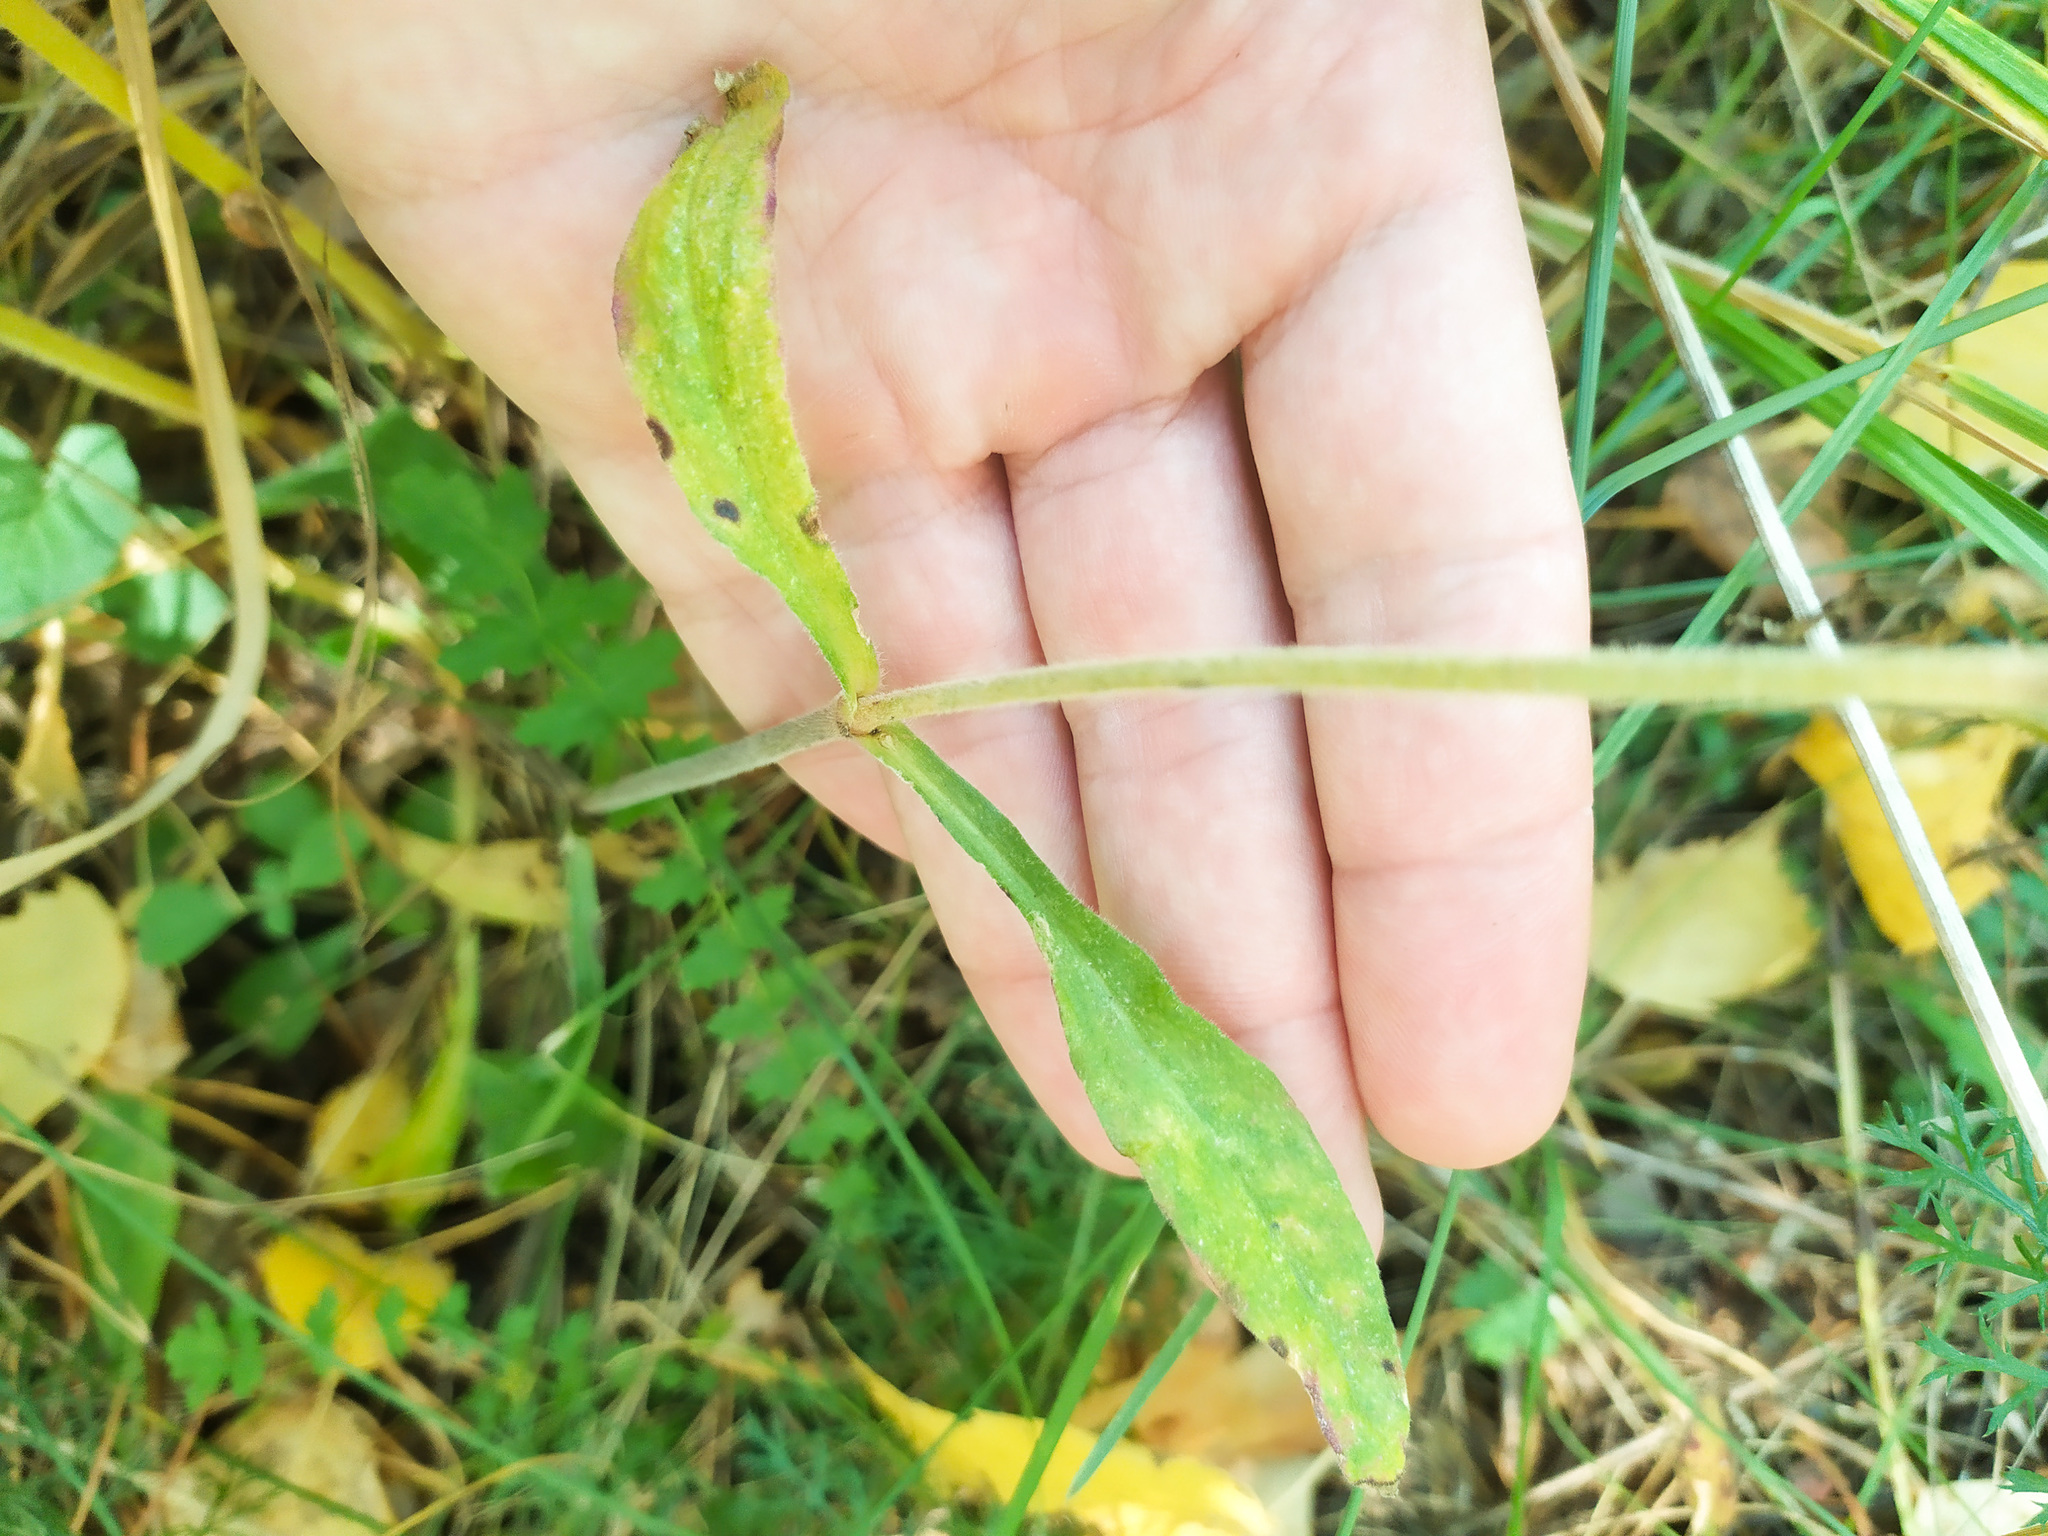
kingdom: Plantae
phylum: Tracheophyta
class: Magnoliopsida
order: Caryophyllales
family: Caryophyllaceae
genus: Silene
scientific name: Silene nutans
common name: Nottingham catchfly
